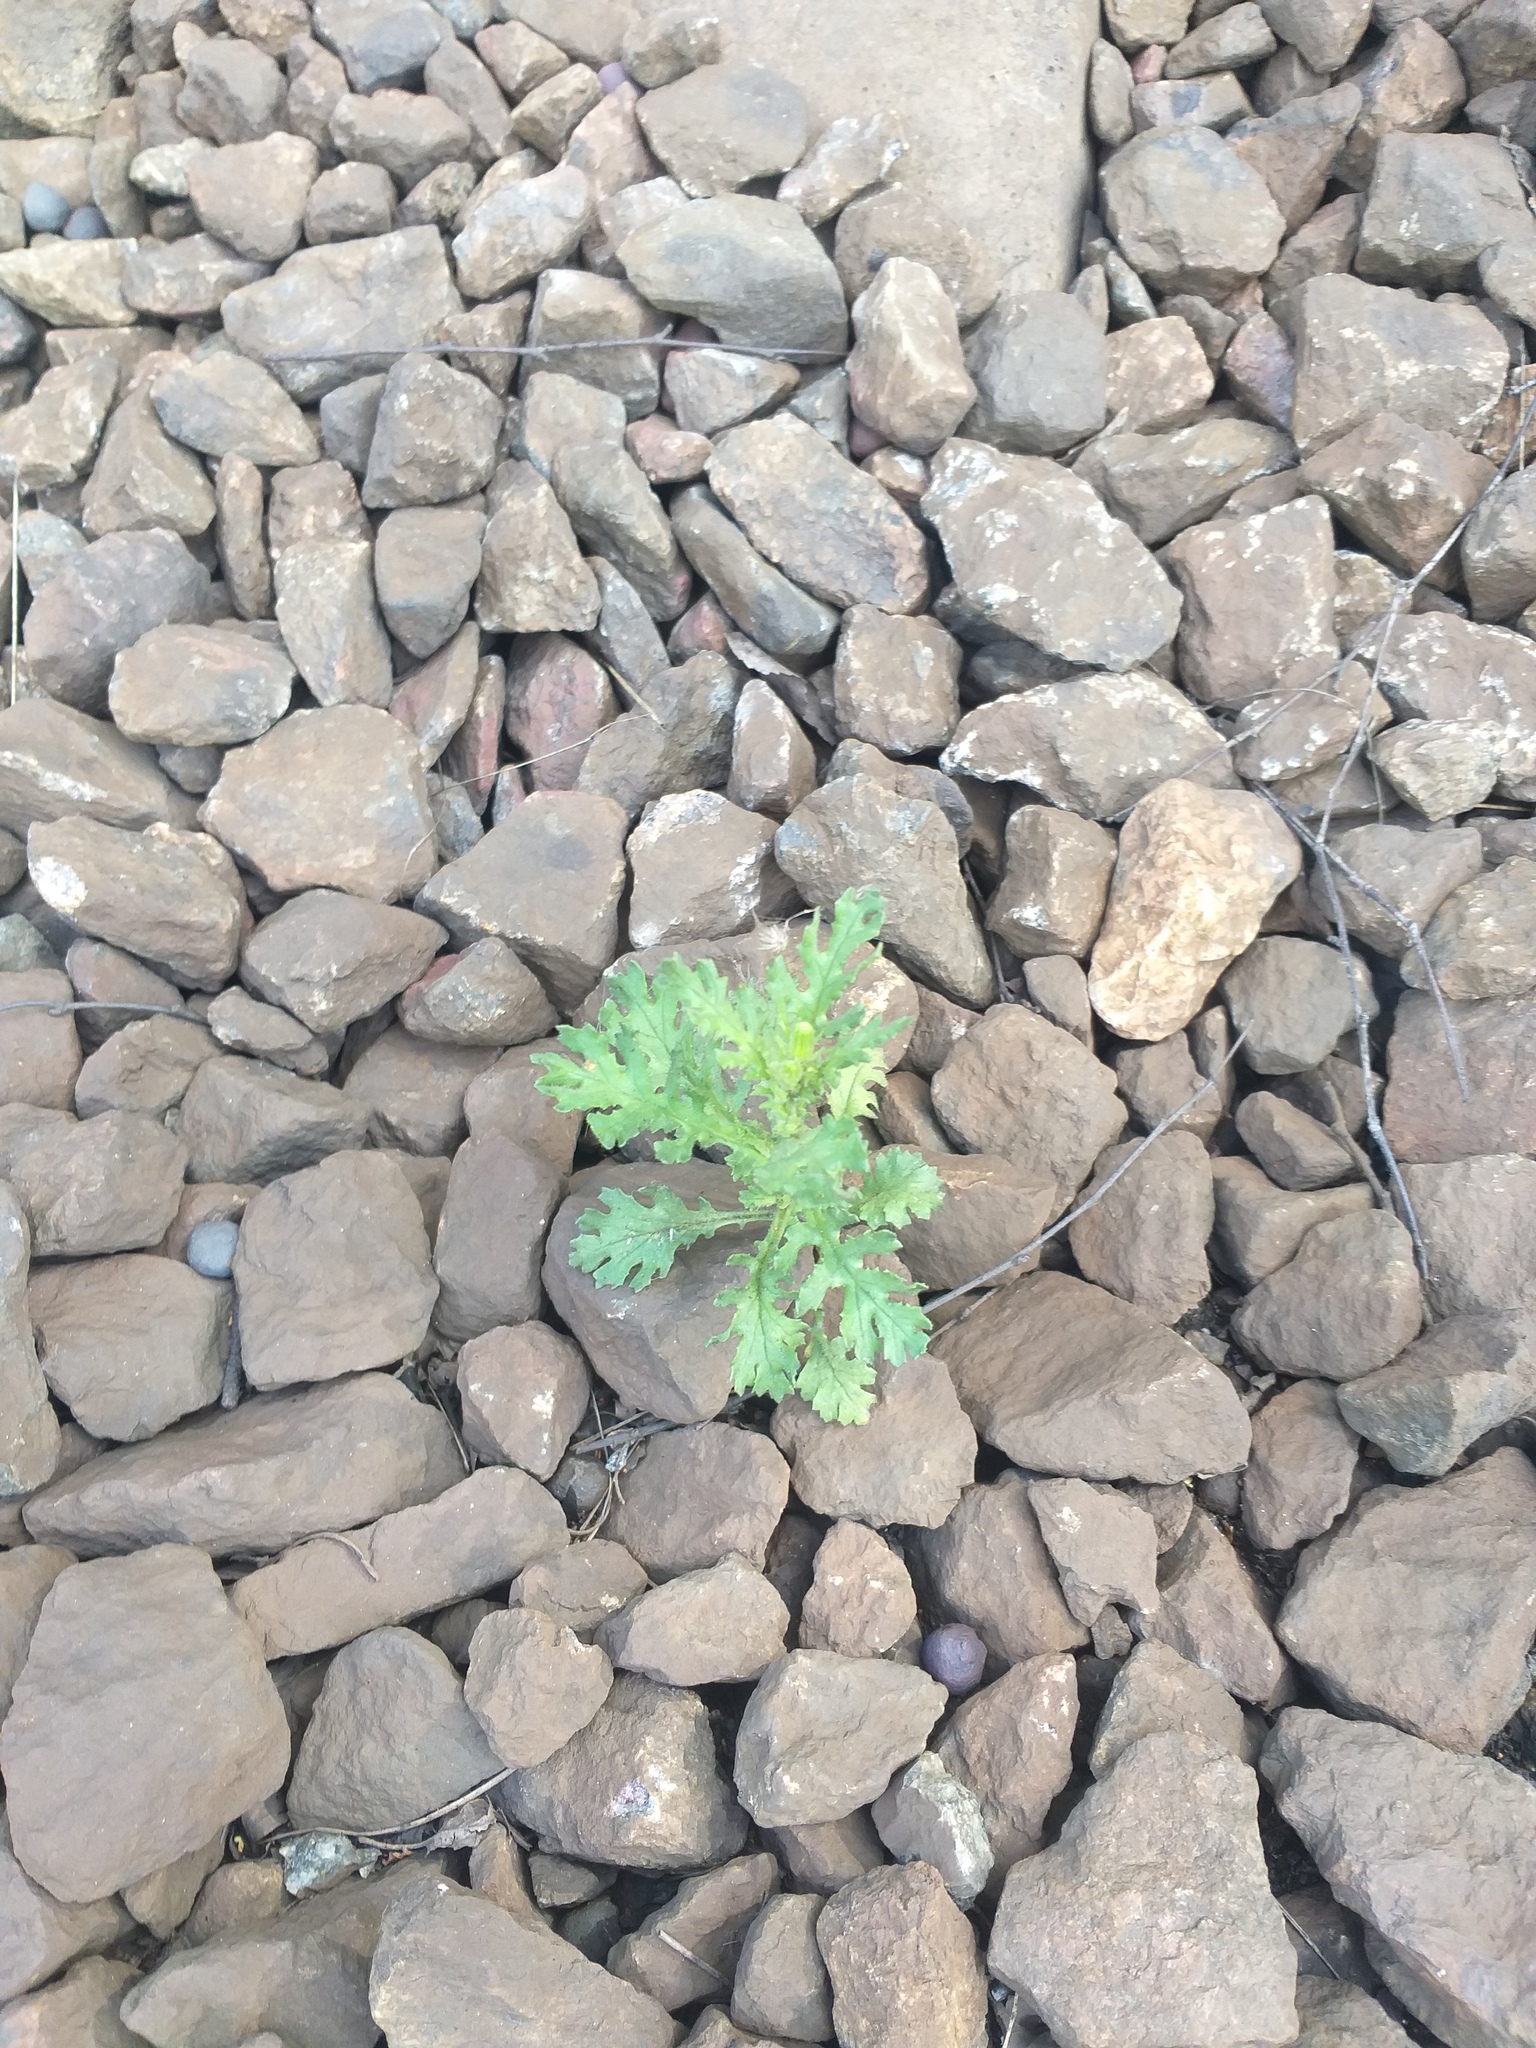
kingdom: Plantae
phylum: Tracheophyta
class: Magnoliopsida
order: Asterales
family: Asteraceae
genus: Senecio
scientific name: Senecio viscosus
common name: Sticky groundsel
